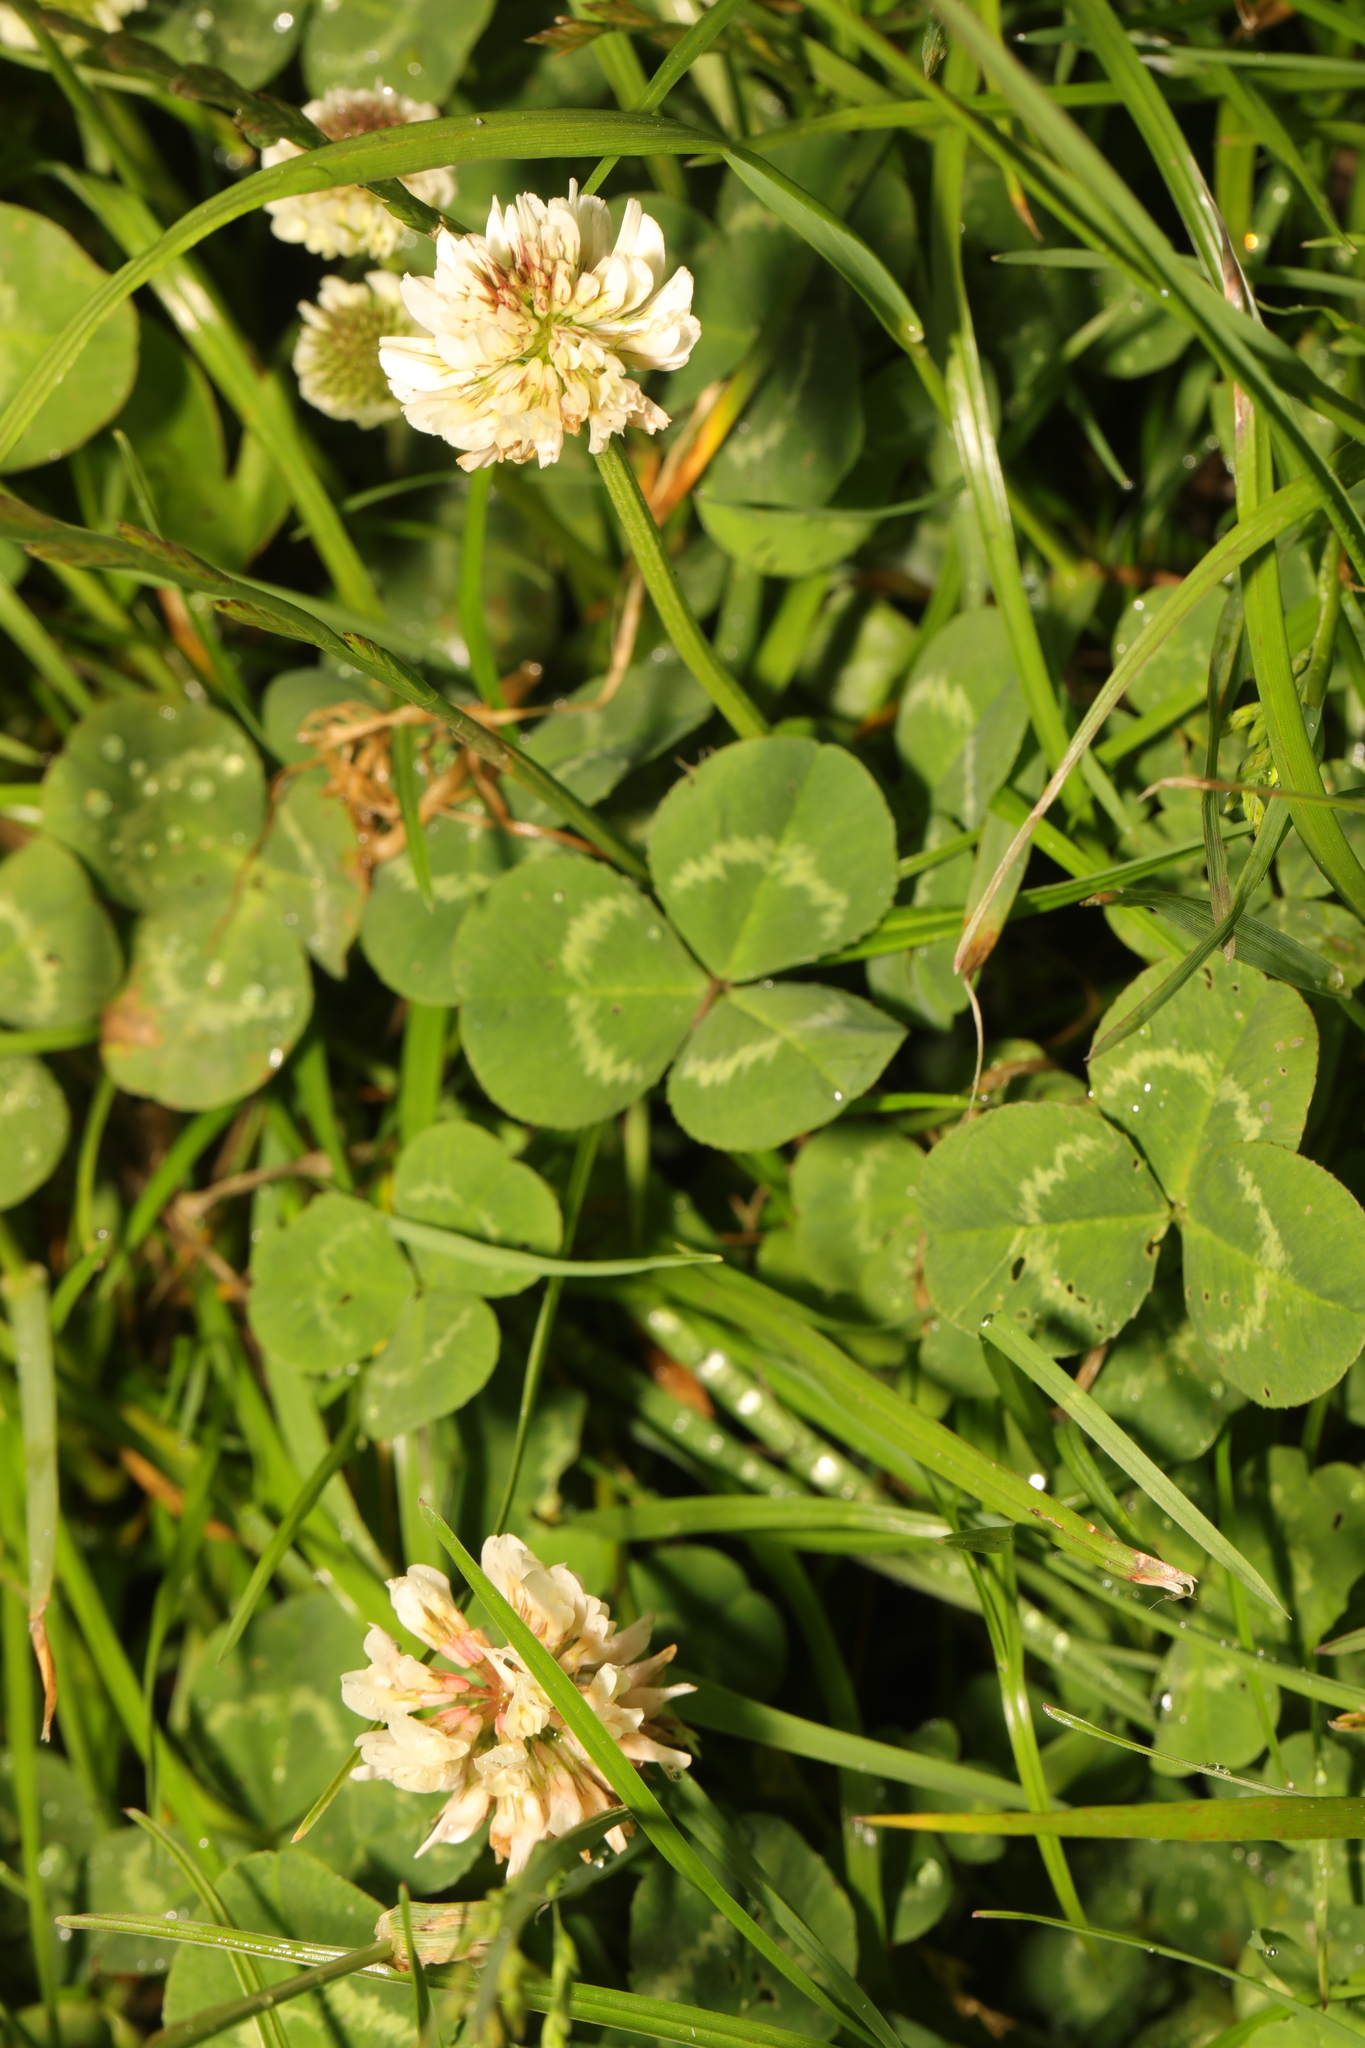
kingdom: Plantae
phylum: Tracheophyta
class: Magnoliopsida
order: Fabales
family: Fabaceae
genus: Trifolium
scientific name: Trifolium repens
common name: White clover
